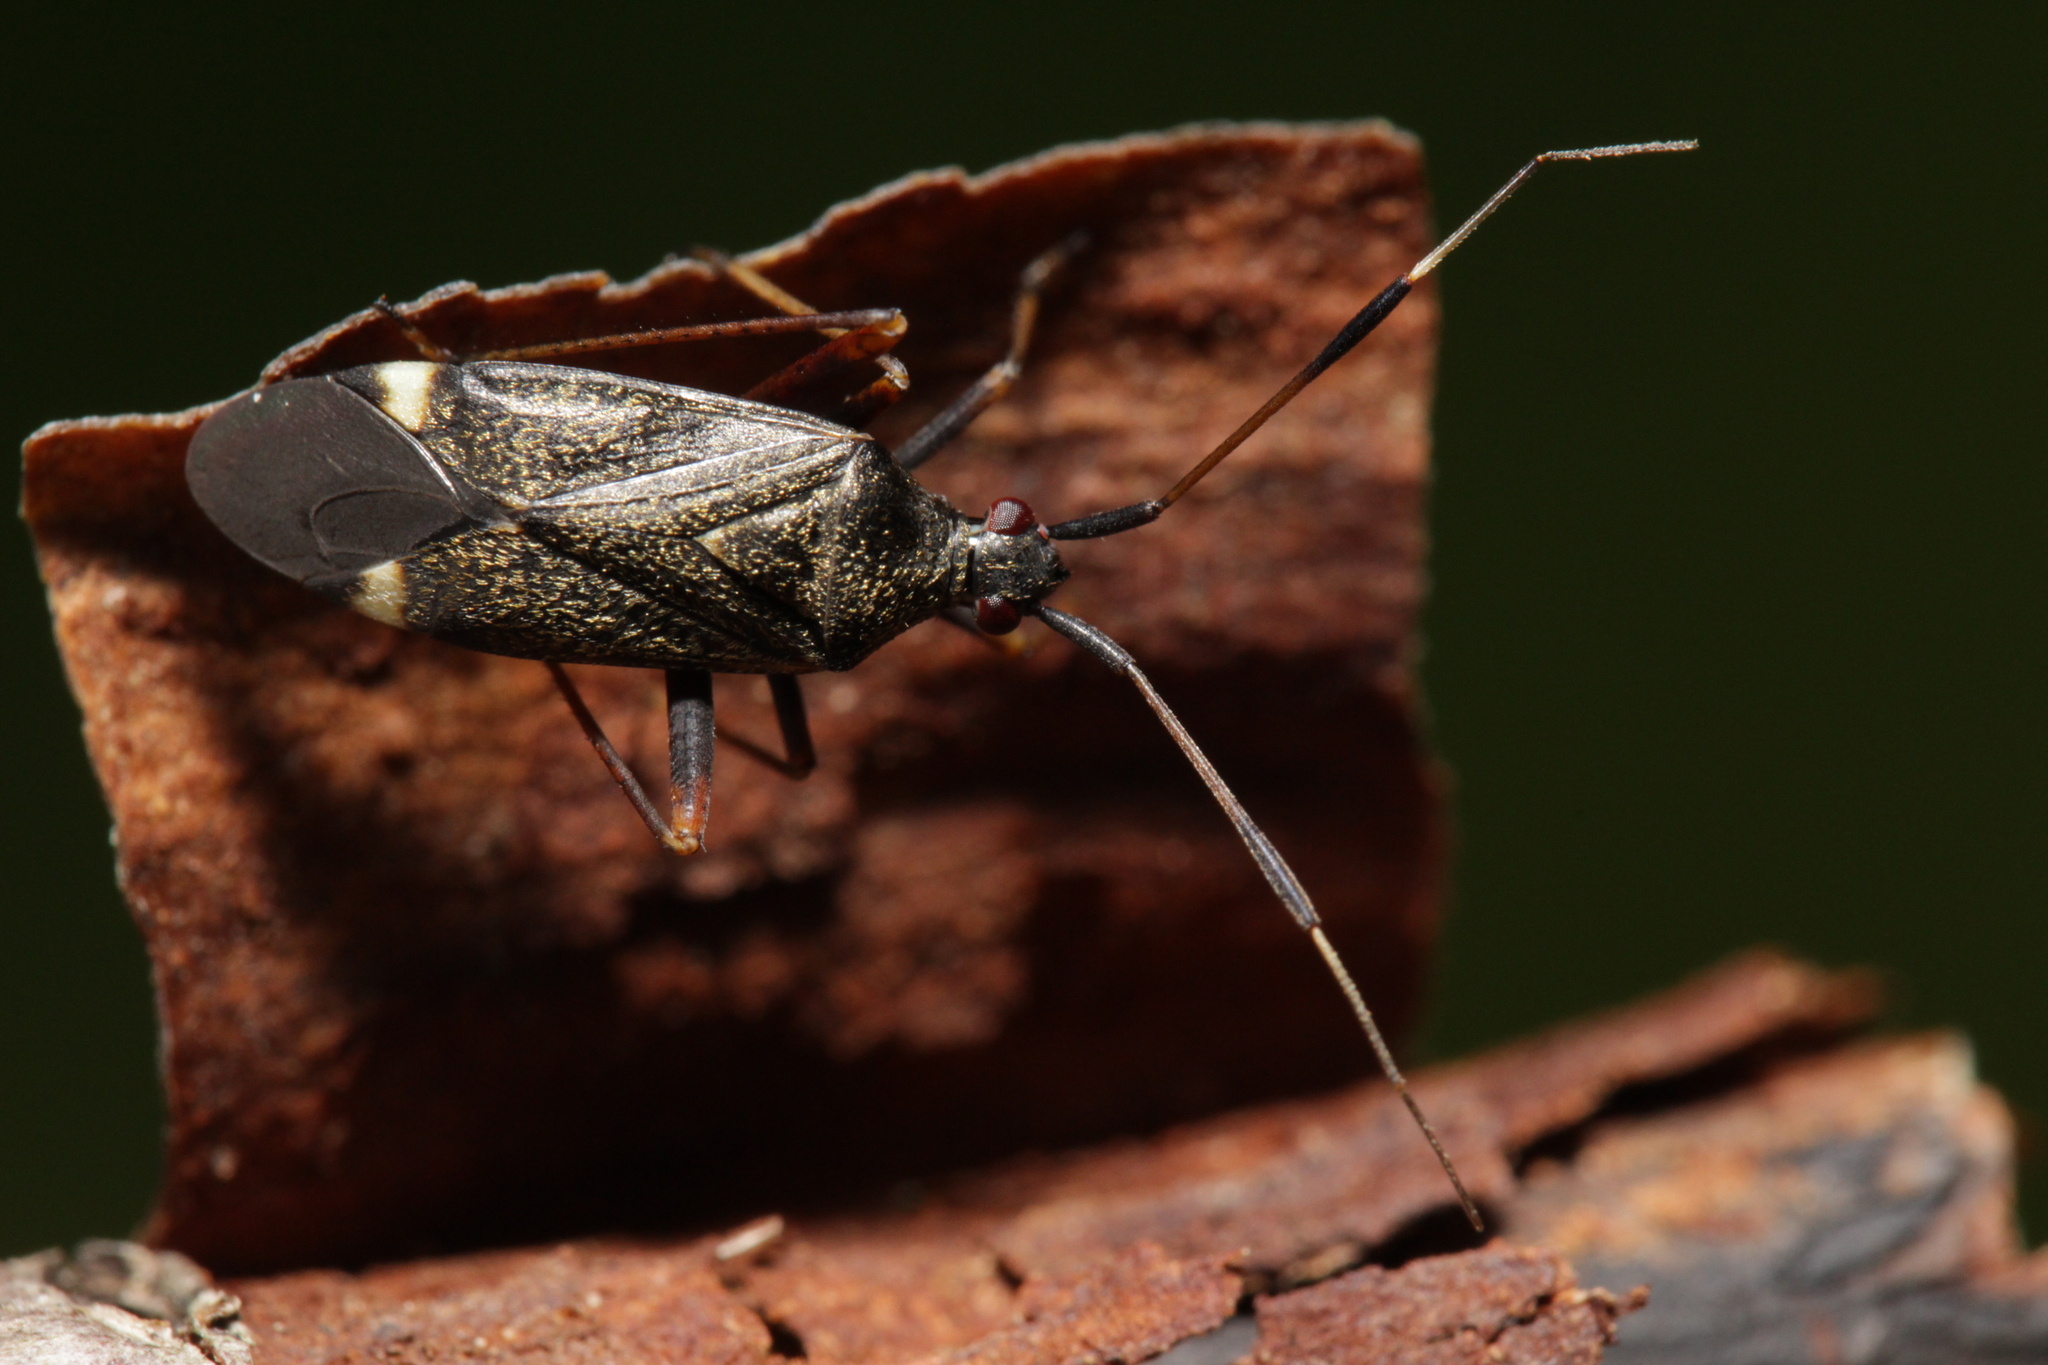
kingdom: Animalia
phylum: Arthropoda
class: Insecta
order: Hemiptera
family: Miridae
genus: Closterotomus
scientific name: Closterotomus biclavatus
